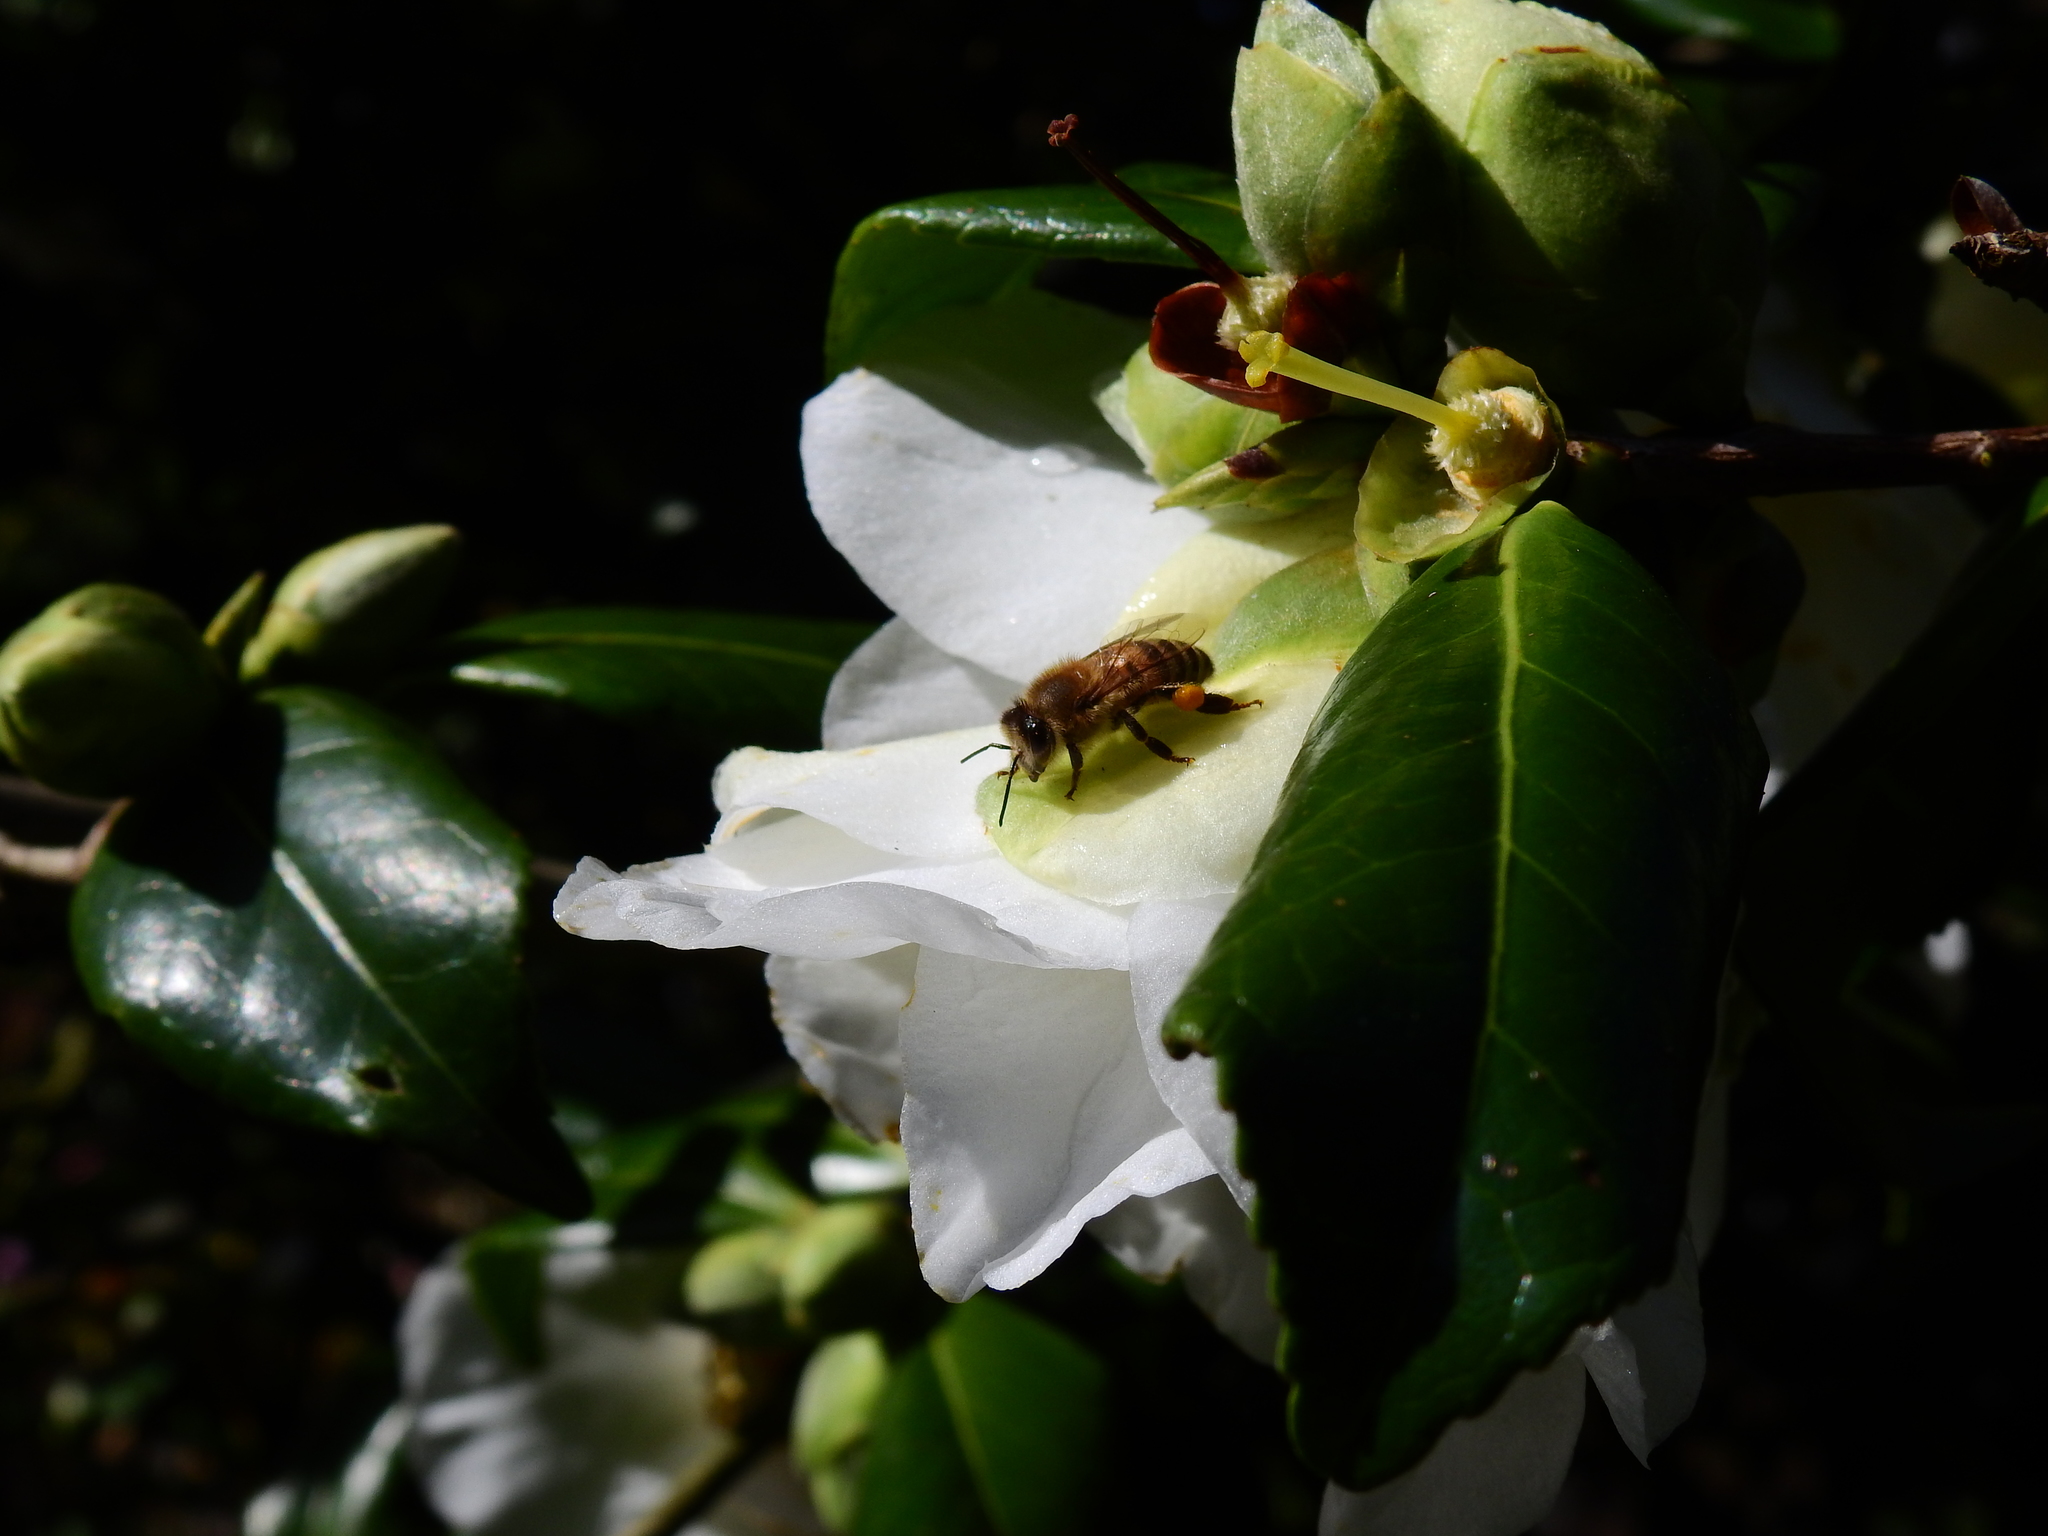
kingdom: Animalia
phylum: Arthropoda
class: Insecta
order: Hymenoptera
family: Apidae
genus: Apis
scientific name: Apis mellifera
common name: Honey bee
